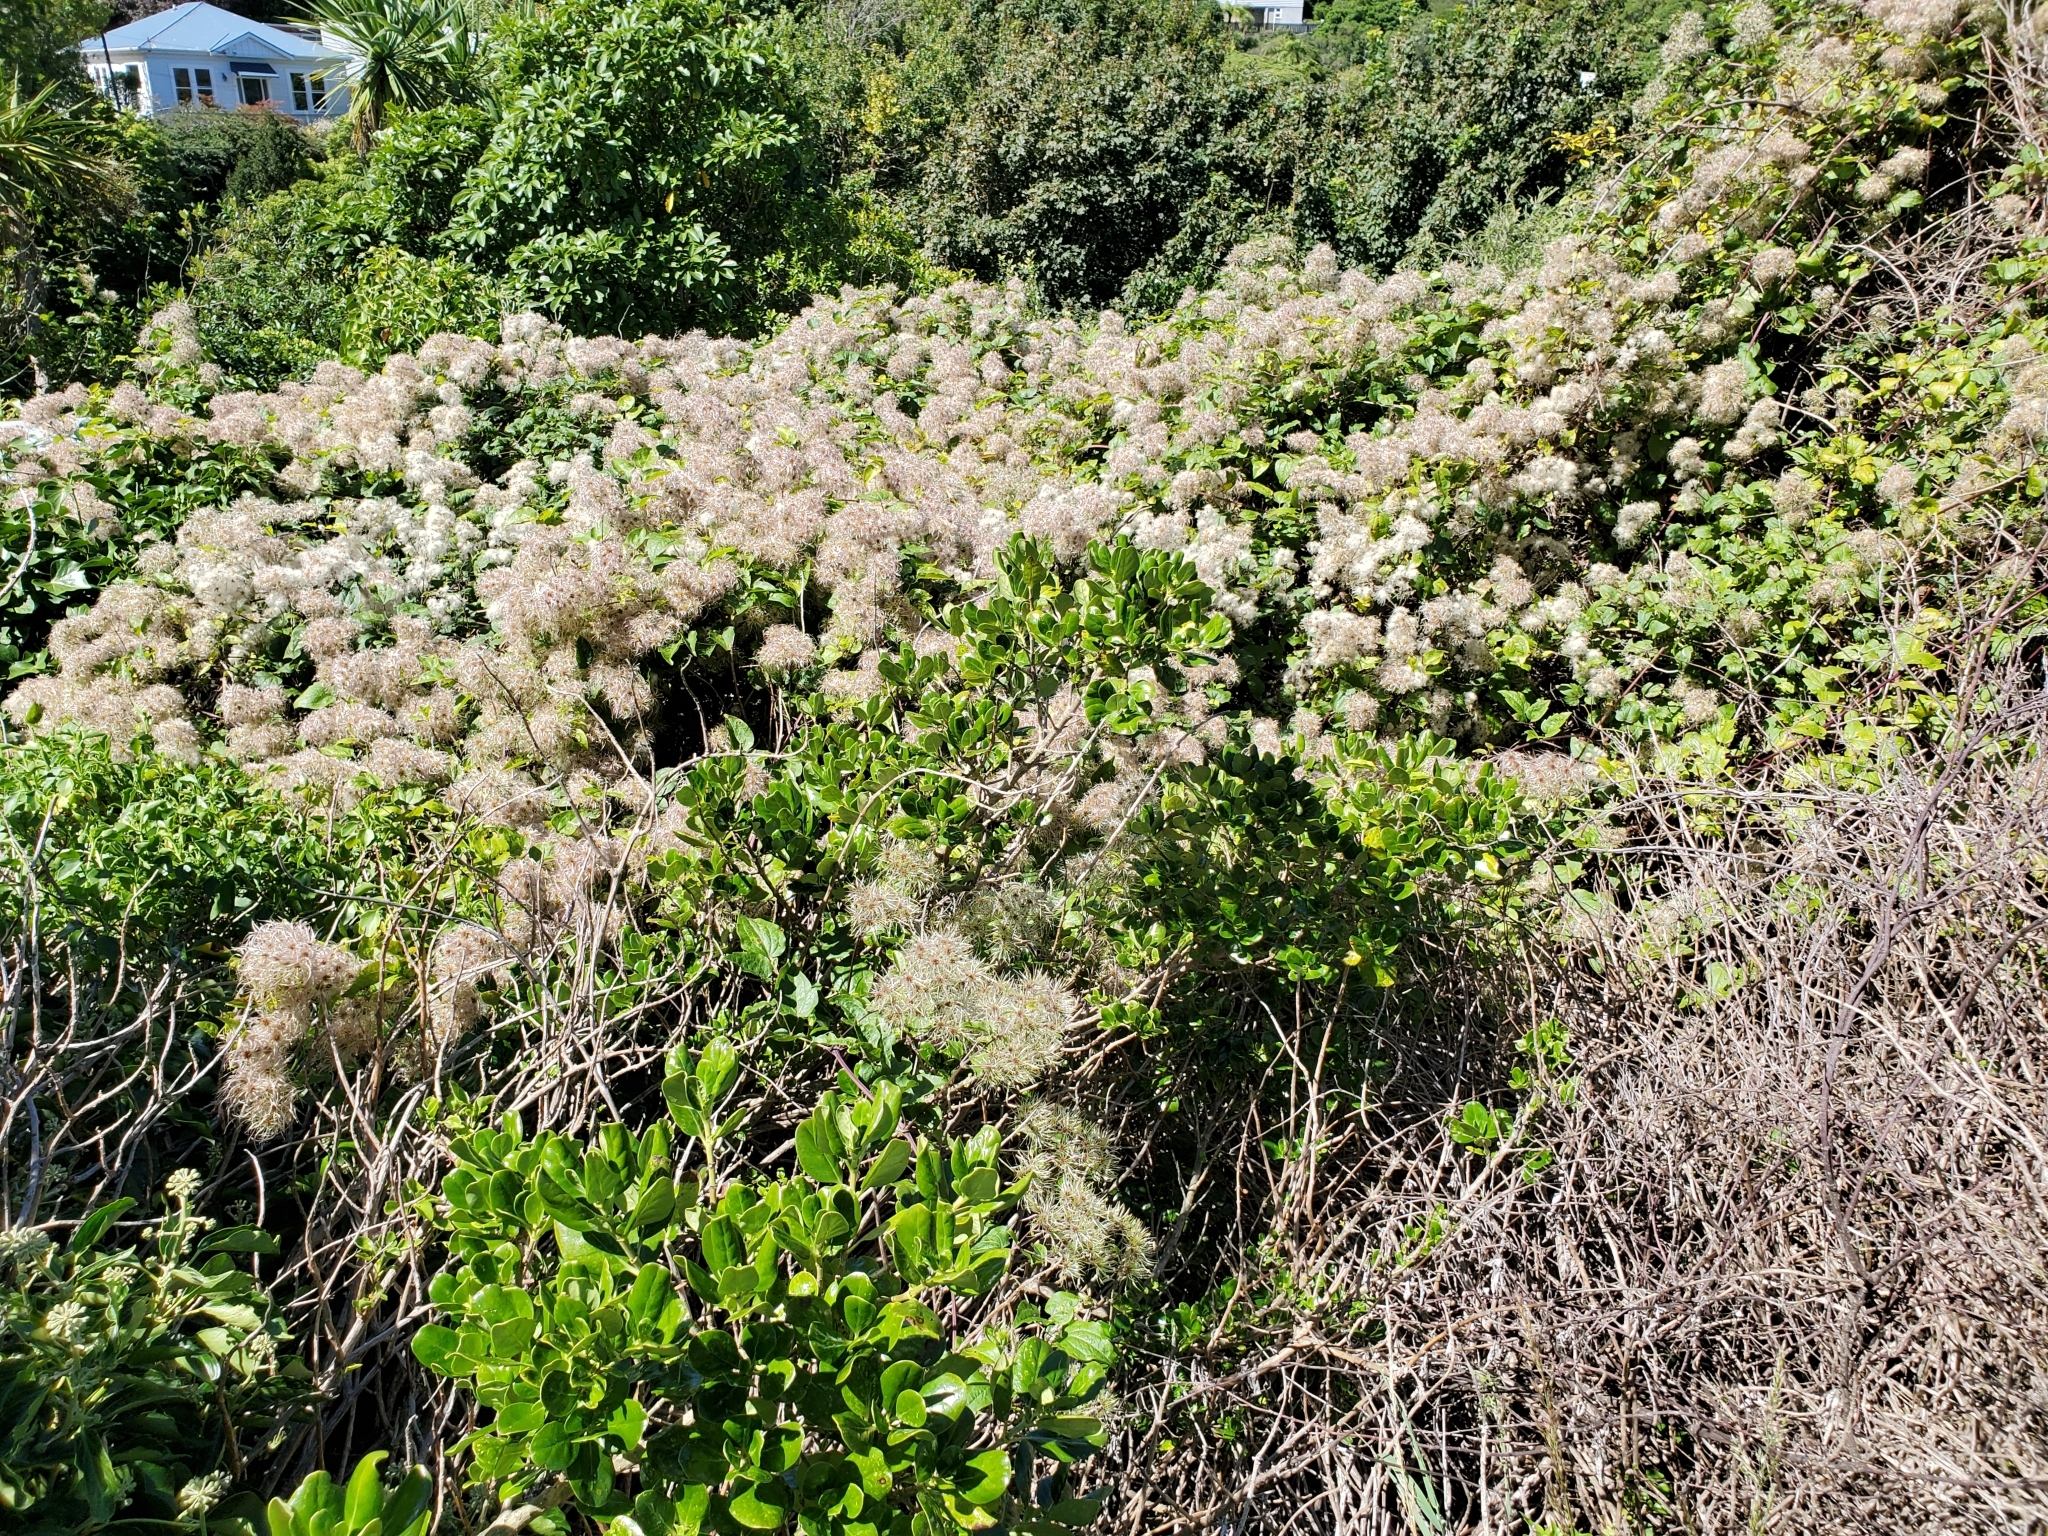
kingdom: Plantae
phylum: Tracheophyta
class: Magnoliopsida
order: Ranunculales
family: Ranunculaceae
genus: Clematis
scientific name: Clematis vitalba
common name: Evergreen clematis
